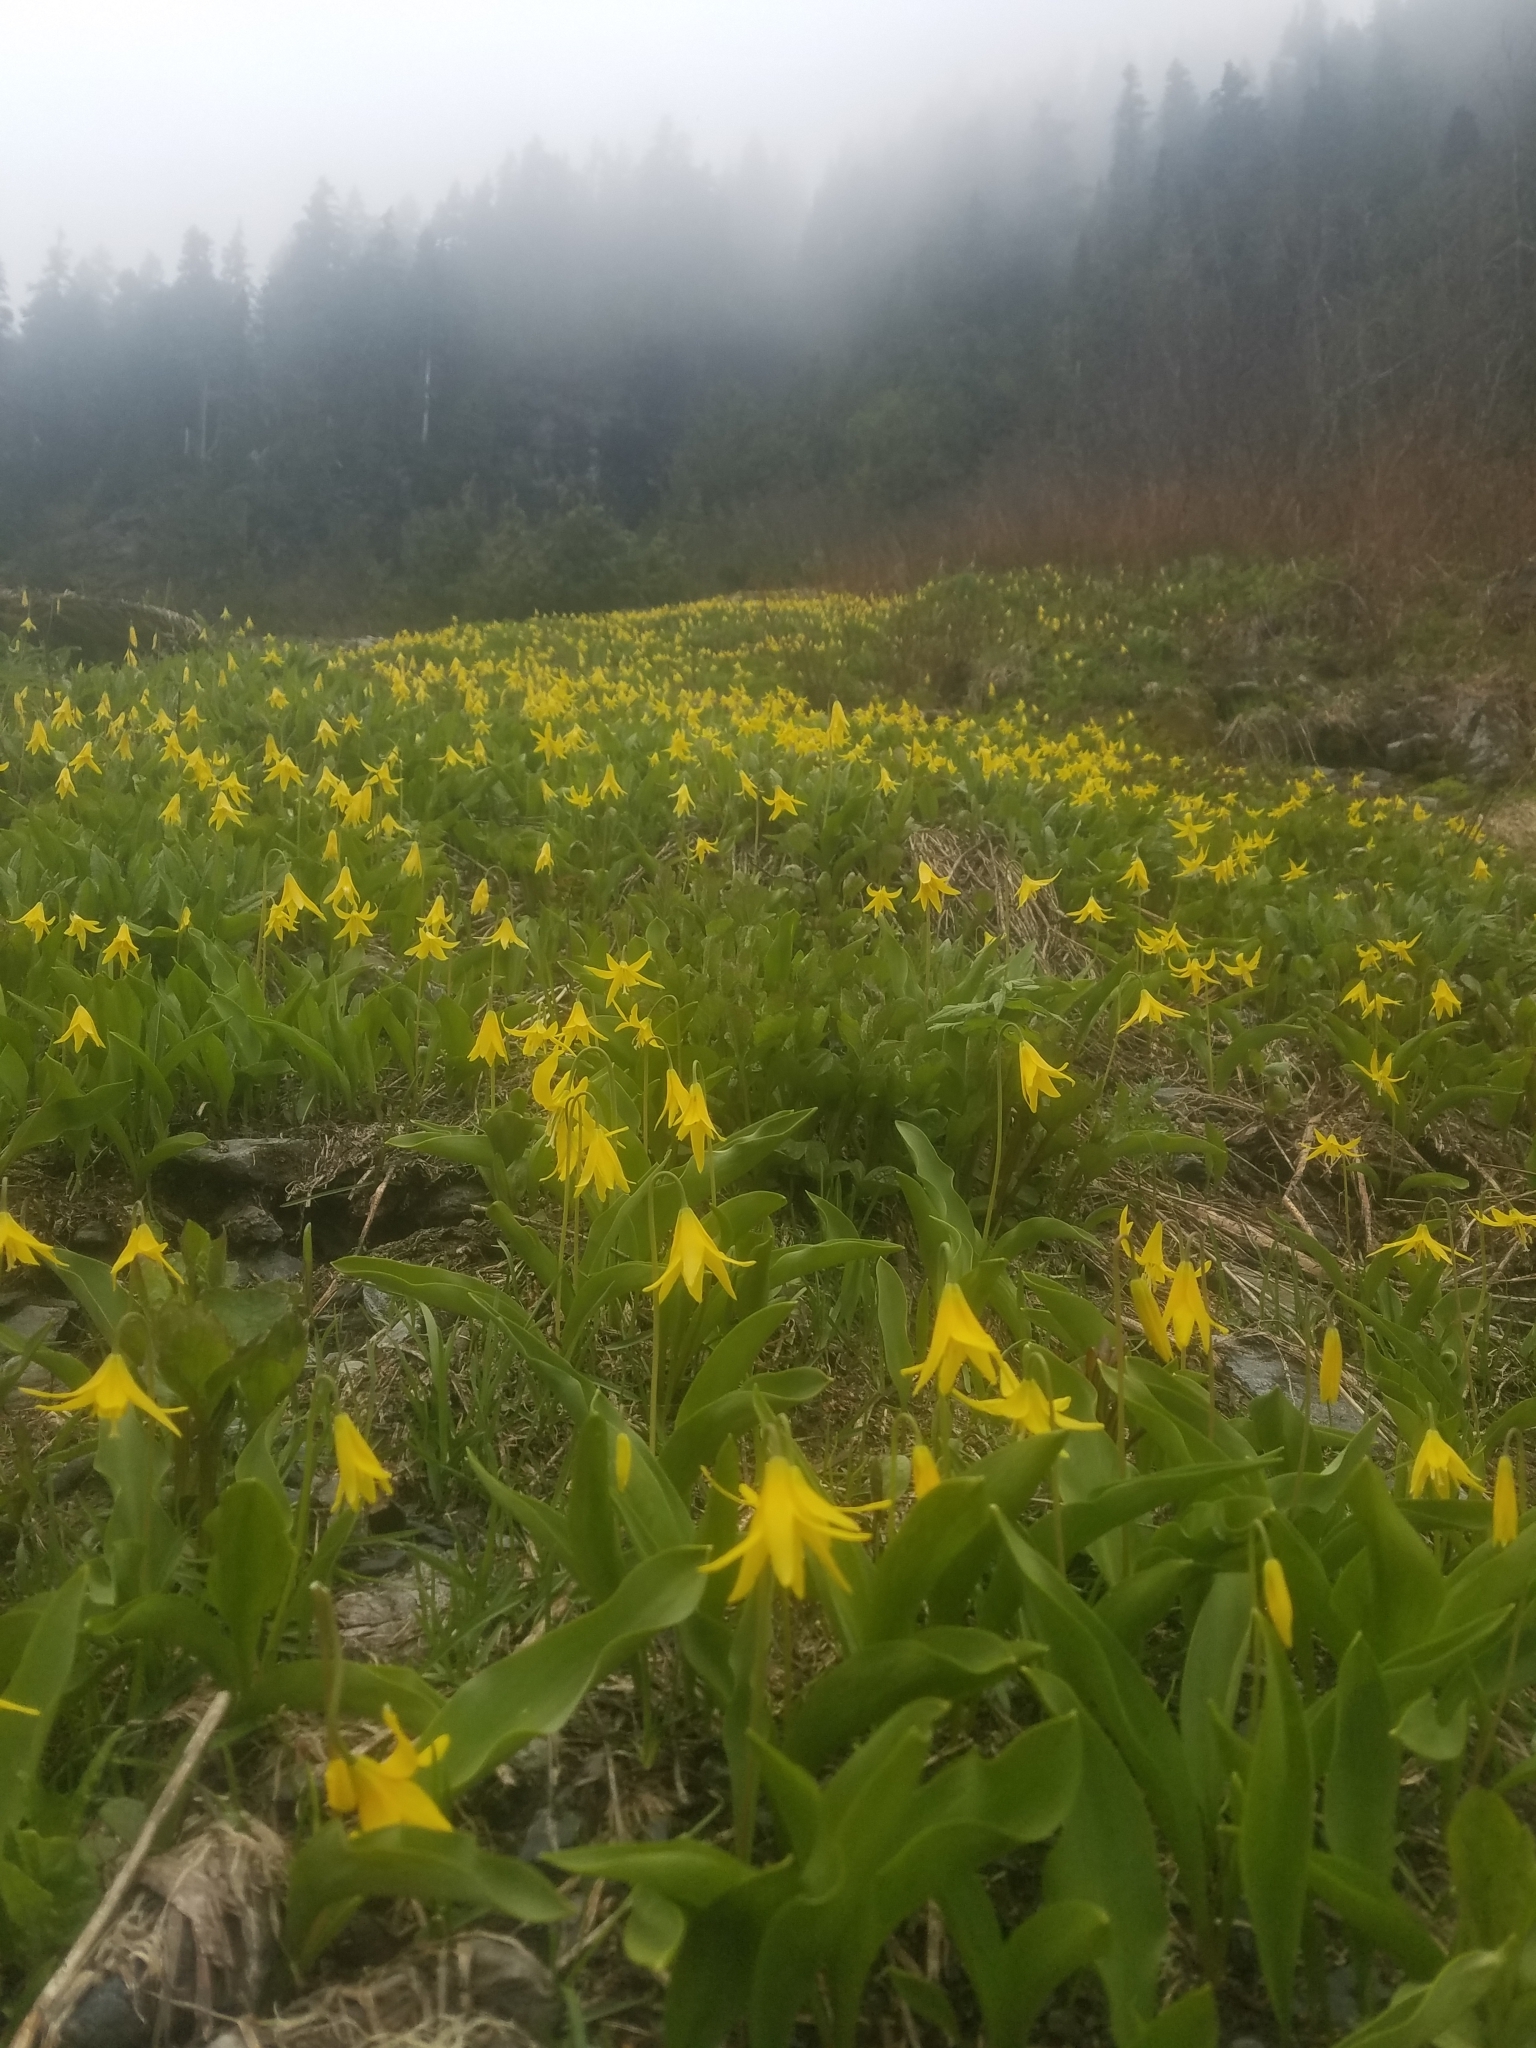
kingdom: Plantae
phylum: Tracheophyta
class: Liliopsida
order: Liliales
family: Liliaceae
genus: Erythronium
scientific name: Erythronium grandiflorum
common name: Avalanche-lily
